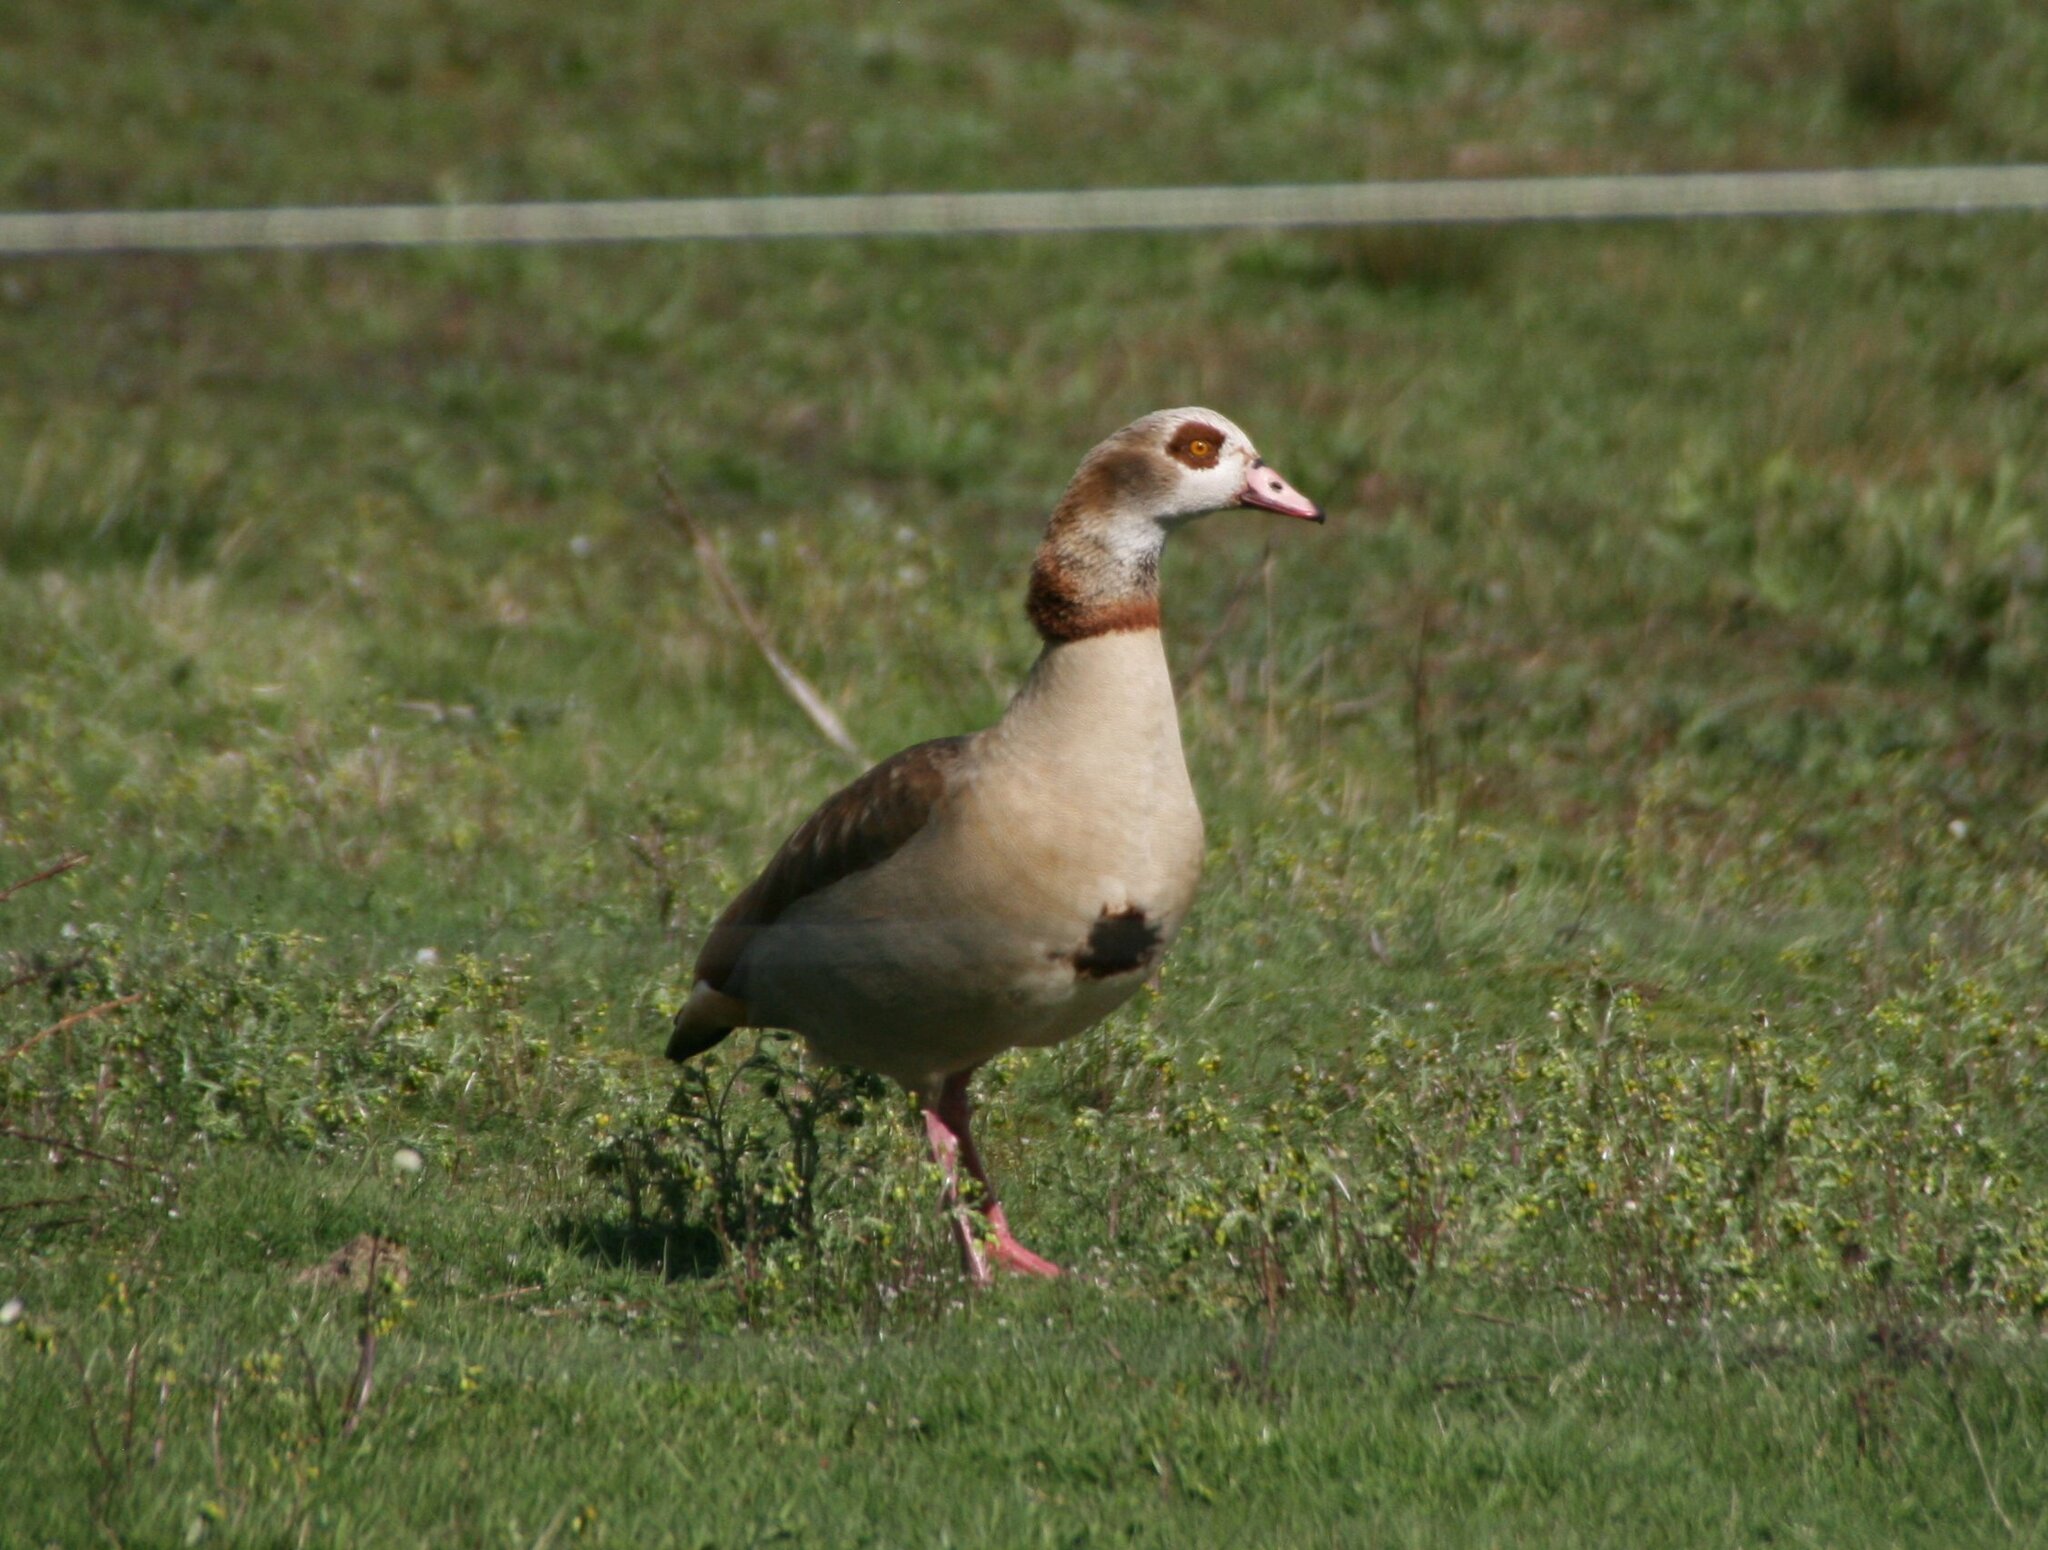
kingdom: Animalia
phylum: Chordata
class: Aves
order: Anseriformes
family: Anatidae
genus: Alopochen
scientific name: Alopochen aegyptiaca
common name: Egyptian goose
